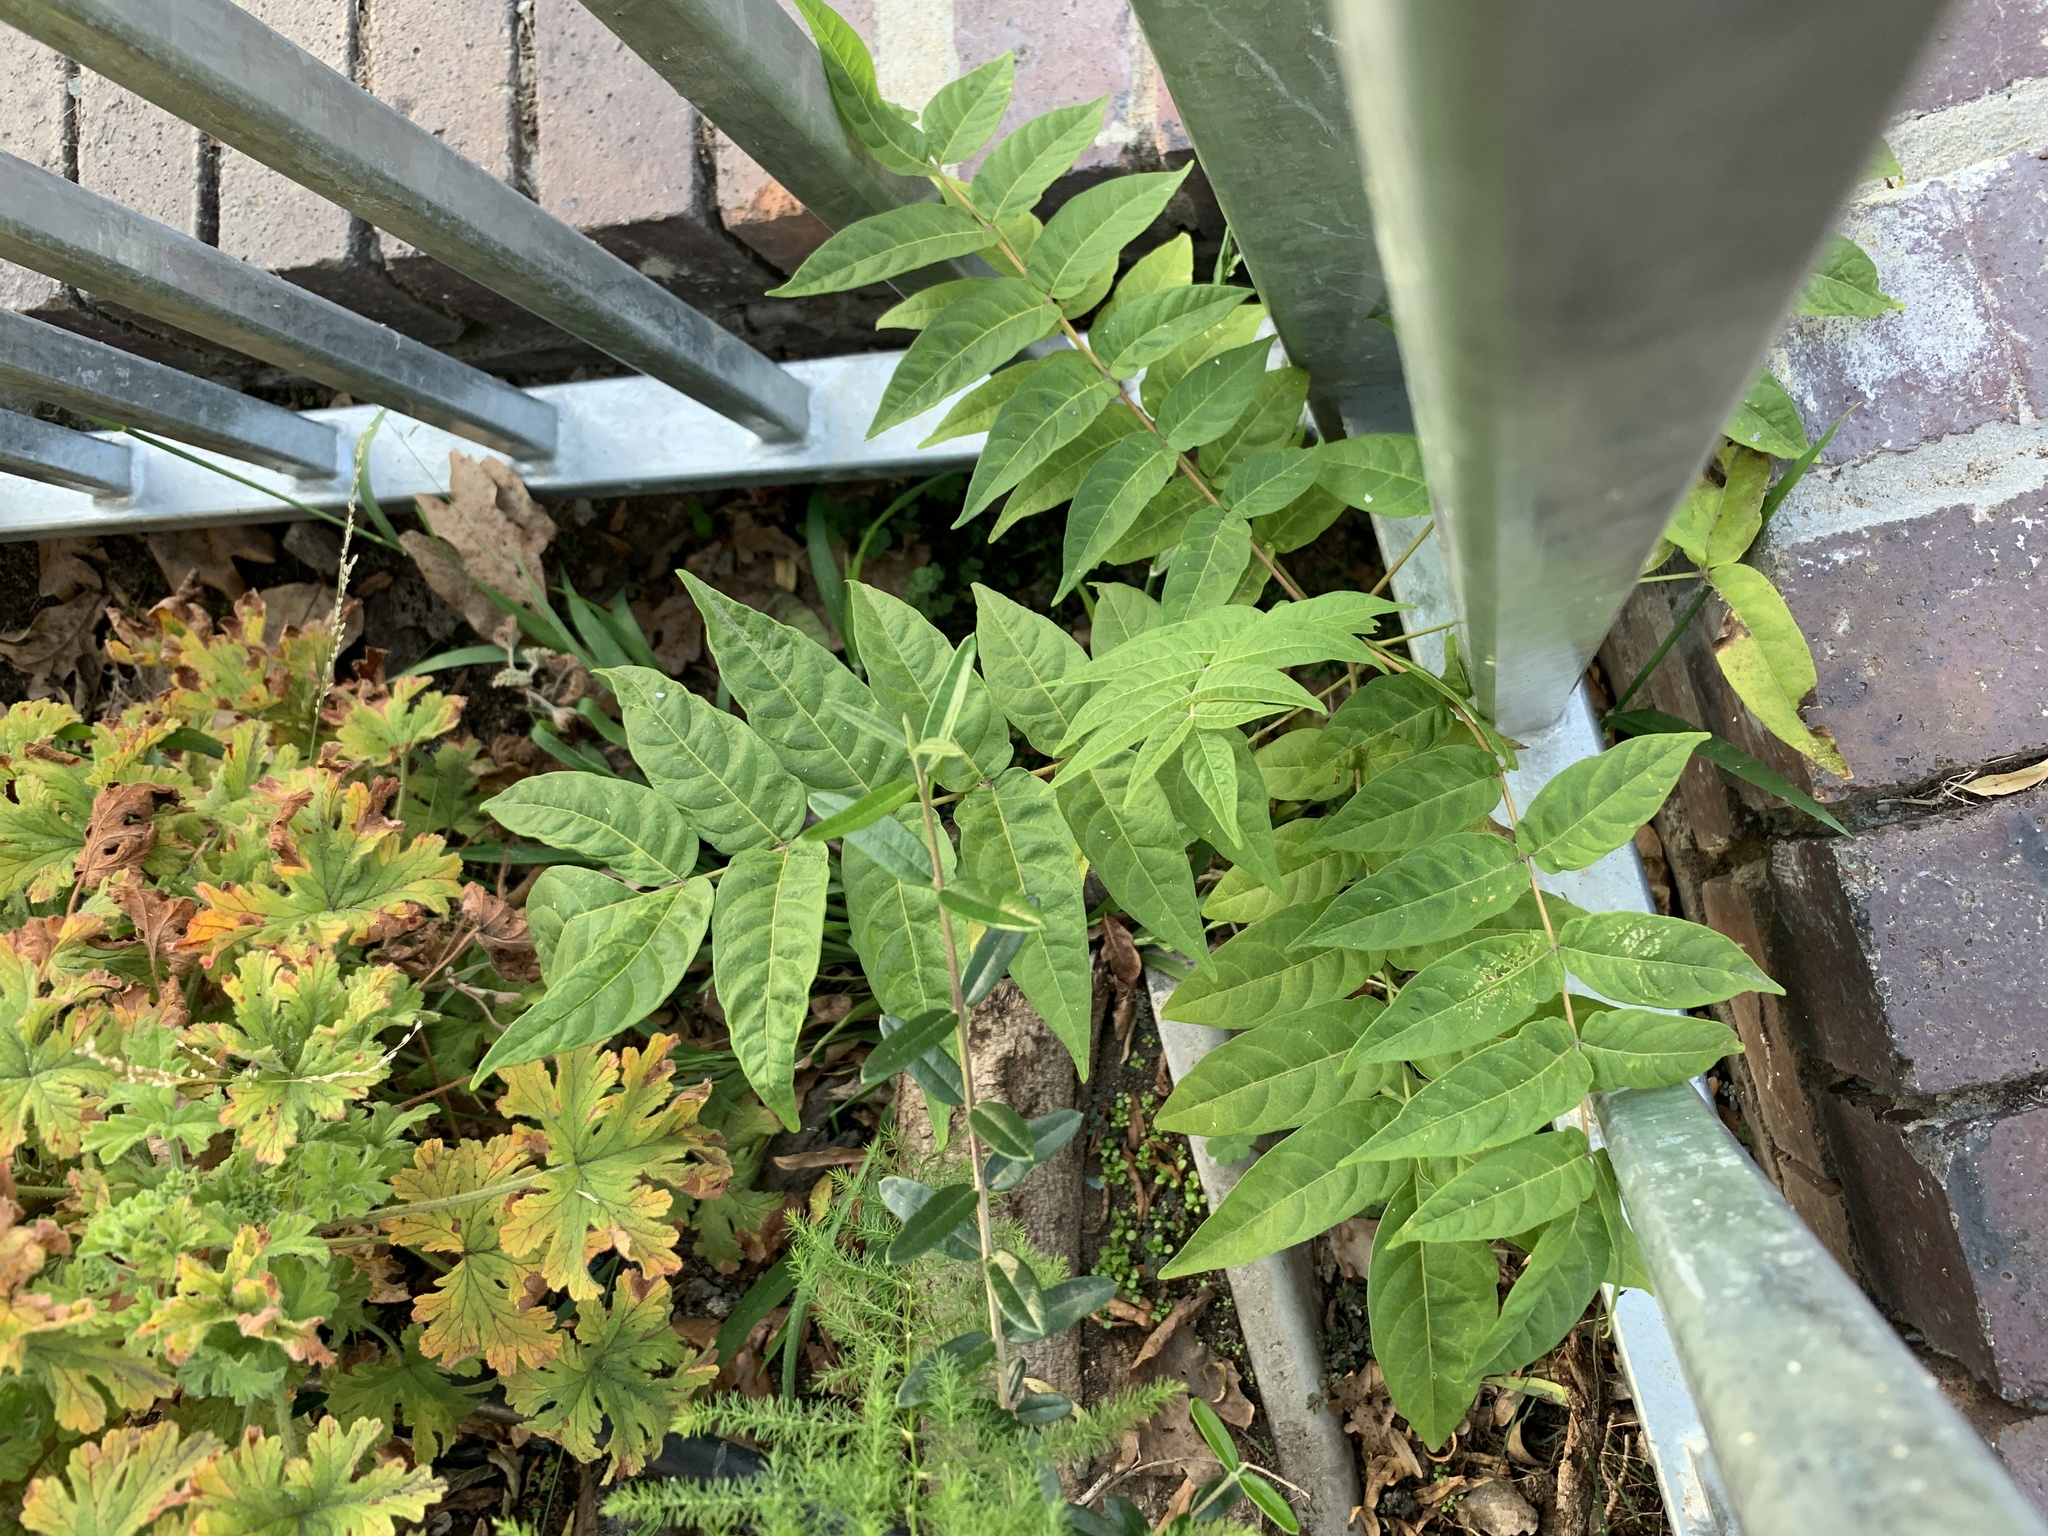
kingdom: Plantae
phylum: Tracheophyta
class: Magnoliopsida
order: Sapindales
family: Simaroubaceae
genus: Ailanthus
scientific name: Ailanthus altissima
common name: Tree-of-heaven
